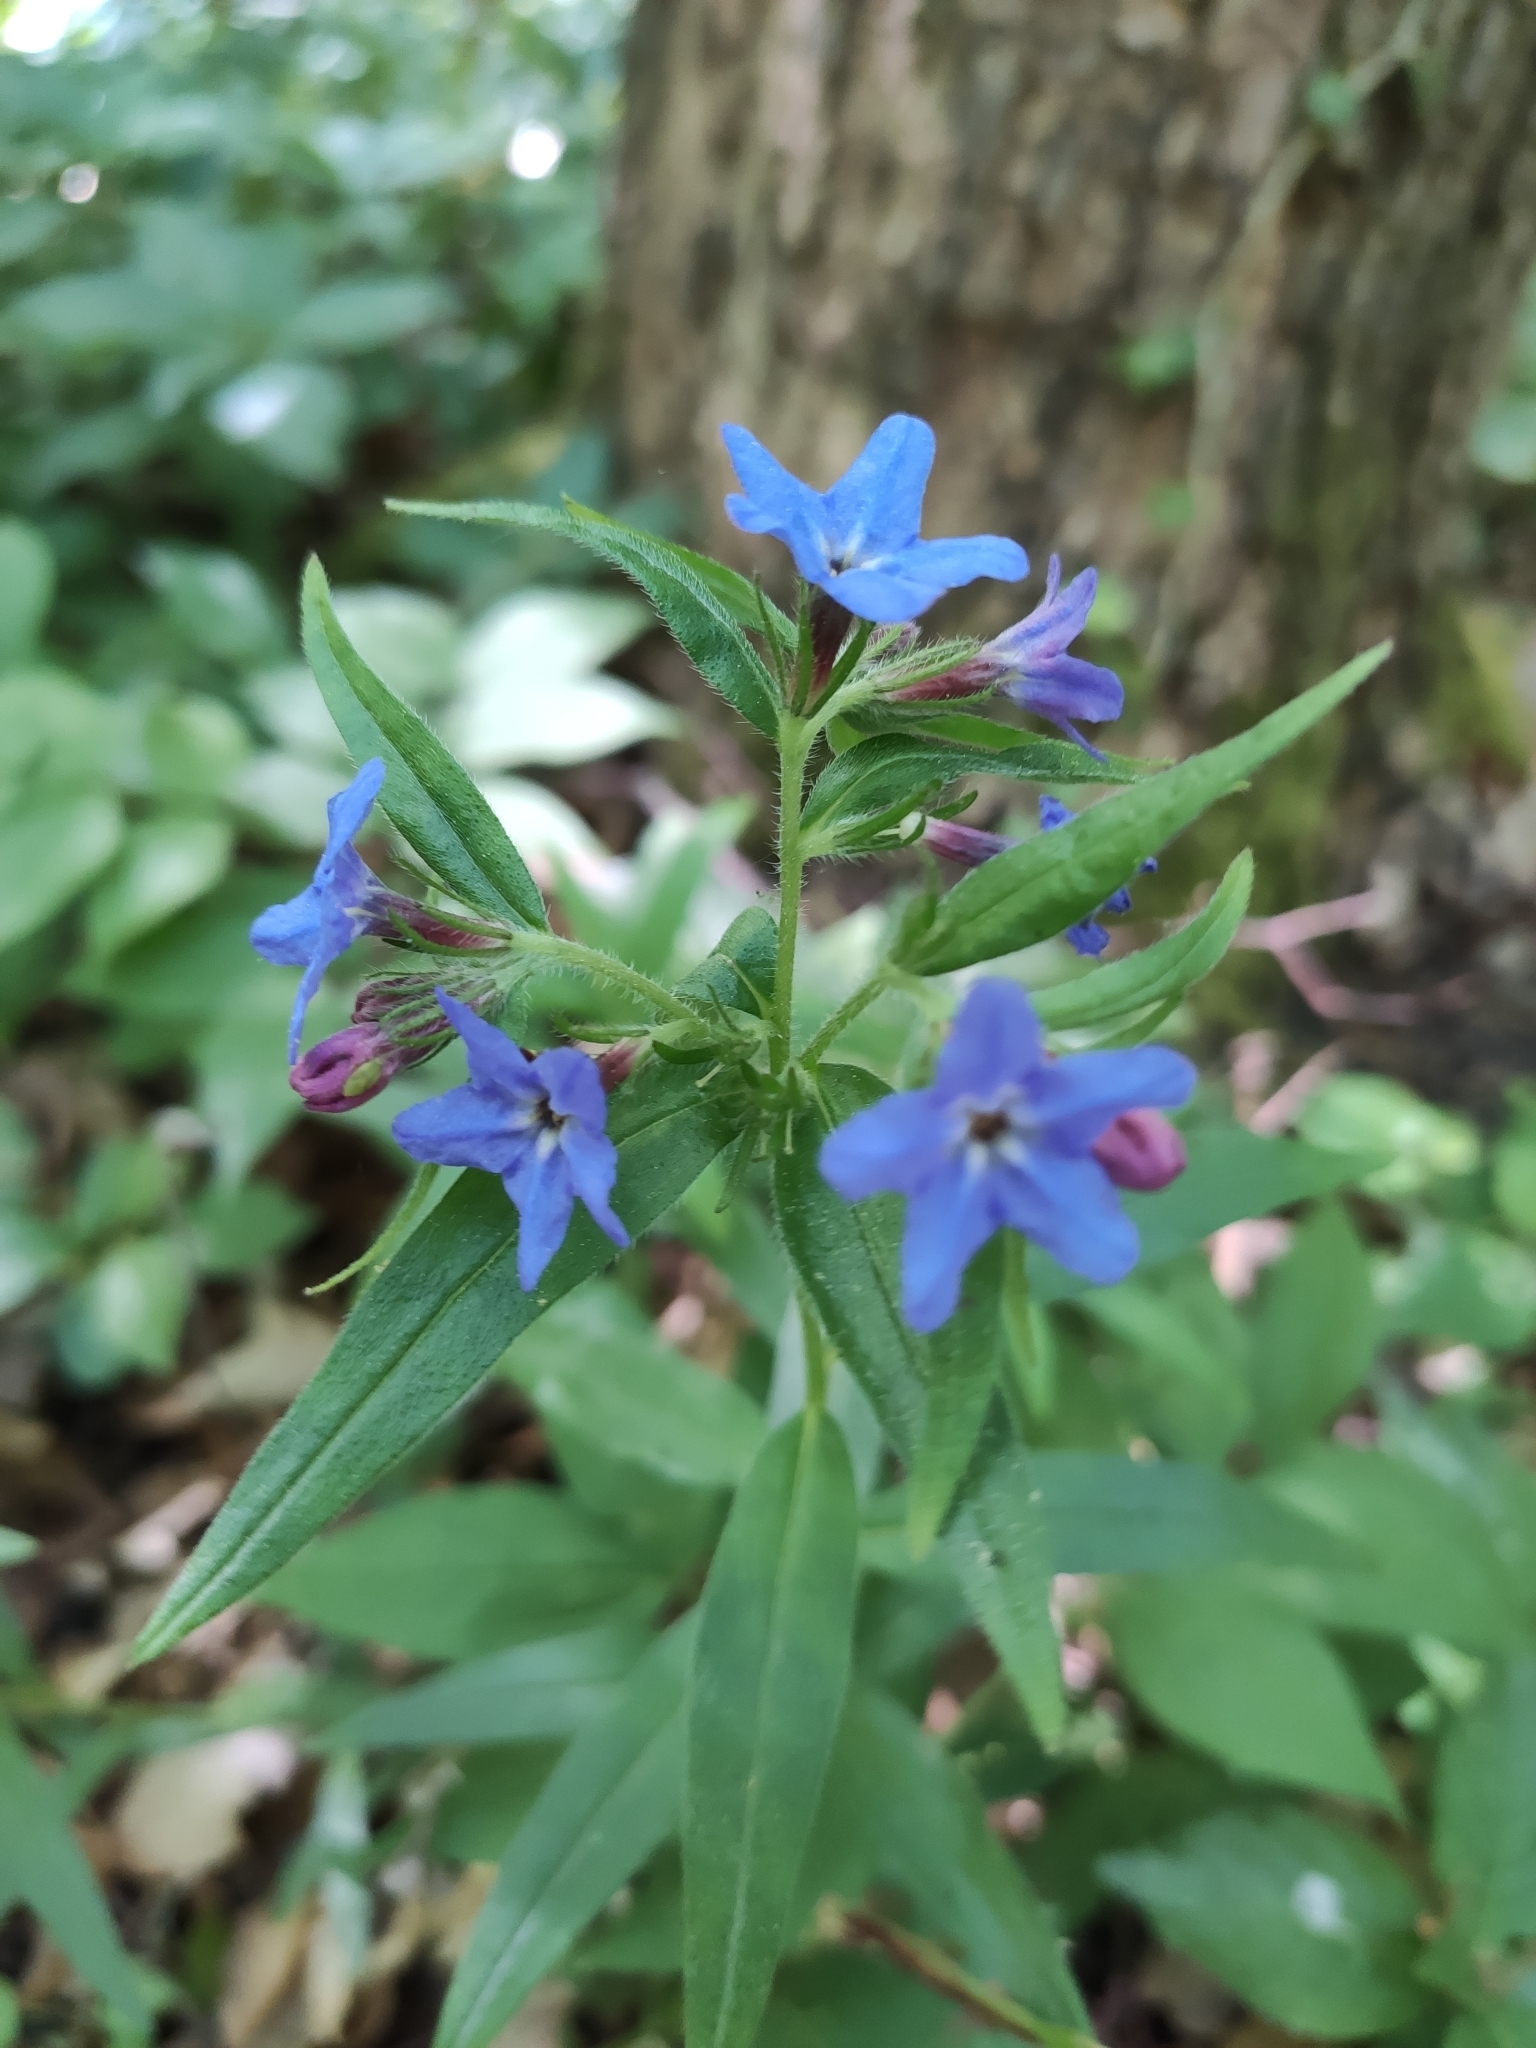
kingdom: Plantae
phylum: Tracheophyta
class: Magnoliopsida
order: Boraginales
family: Boraginaceae
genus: Aegonychon
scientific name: Aegonychon purpurocaeruleum
